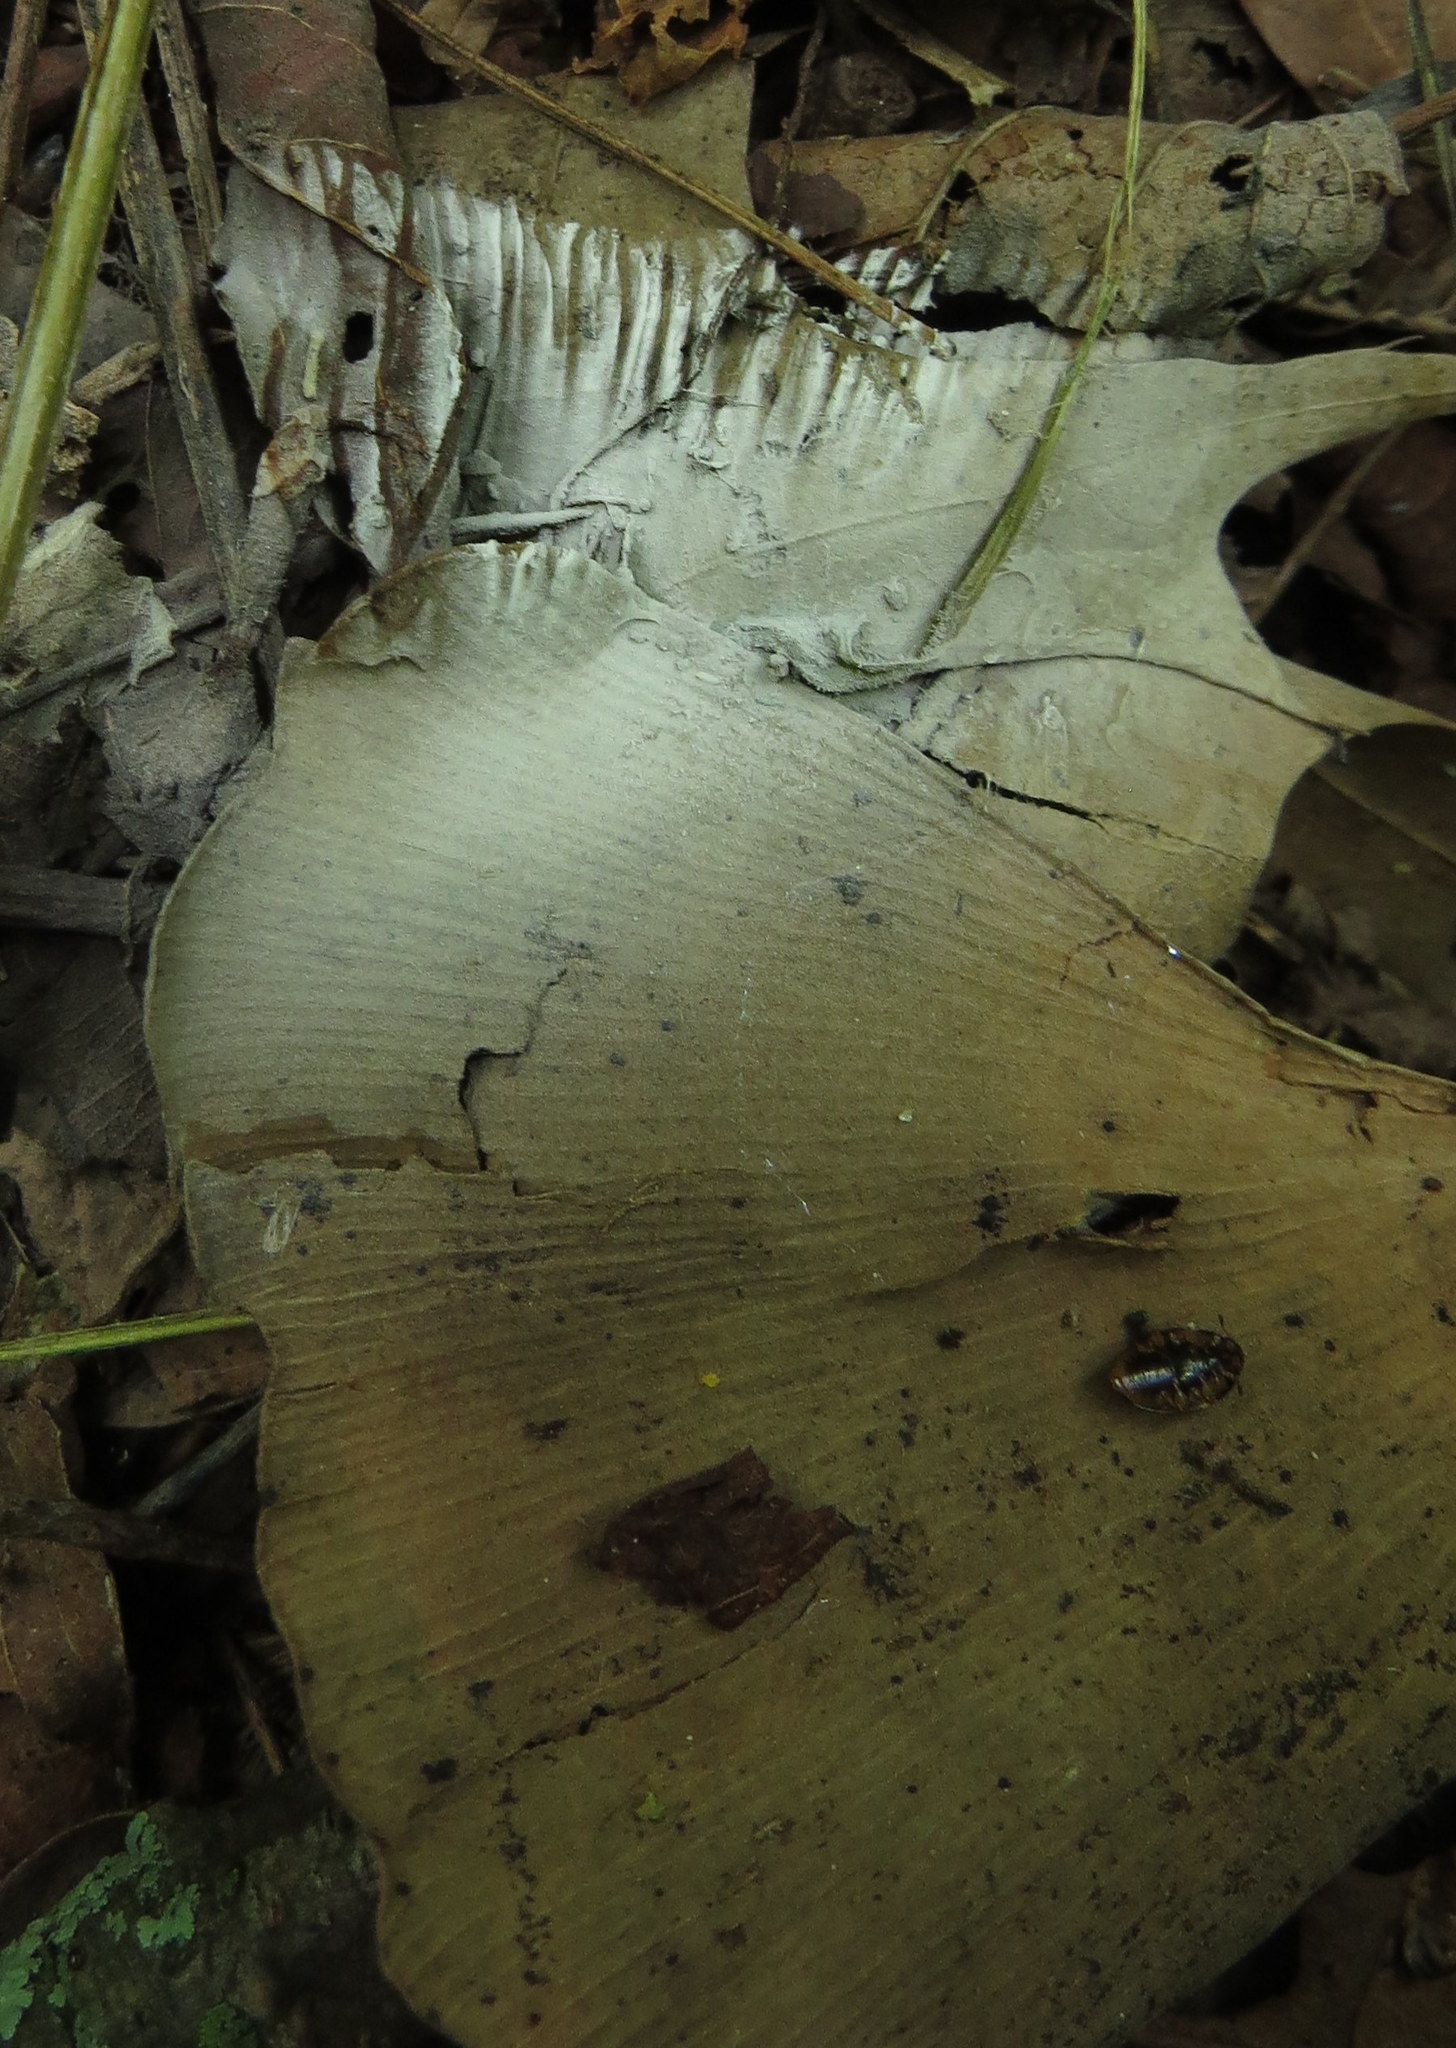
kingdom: Fungi
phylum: Basidiomycota
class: Agaricomycetes
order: Agaricales
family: Physalacriaceae
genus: Hymenopellis
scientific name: Hymenopellis furfuracea
